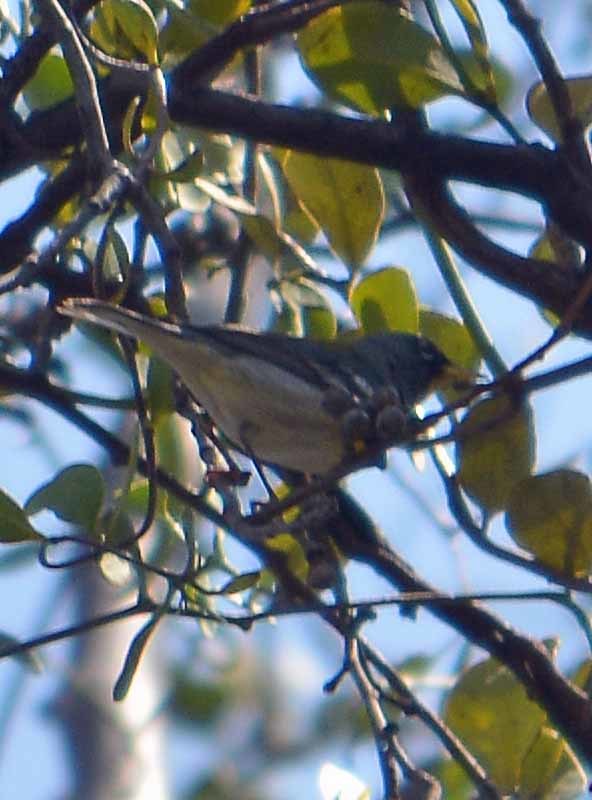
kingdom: Animalia
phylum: Chordata
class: Aves
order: Passeriformes
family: Parulidae
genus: Setophaga
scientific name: Setophaga americana
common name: Northern parula
